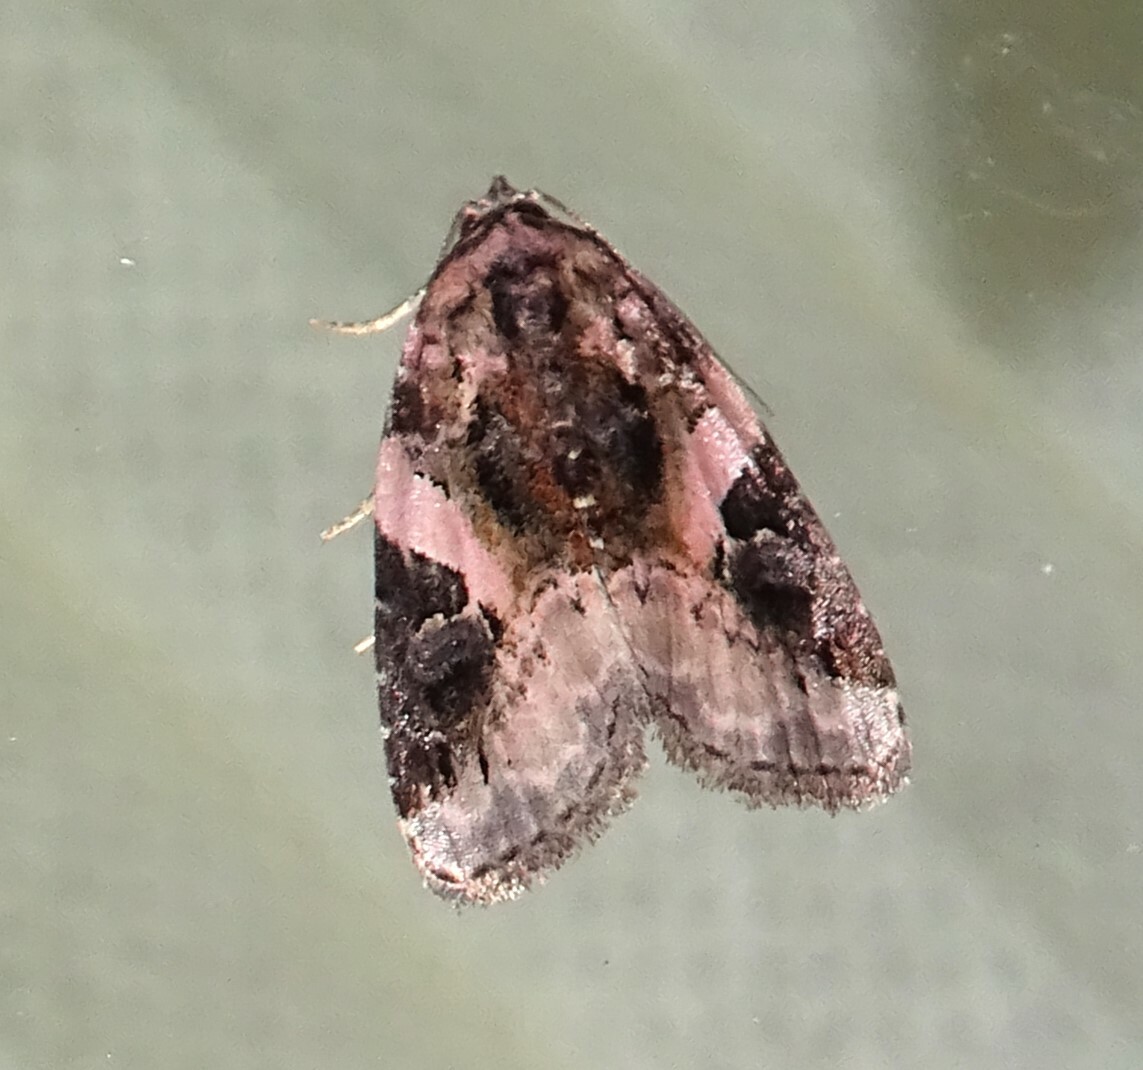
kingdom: Animalia
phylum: Arthropoda
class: Insecta
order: Lepidoptera
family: Noctuidae
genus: Pseudeustrotia
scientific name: Pseudeustrotia carneola
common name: Pink-barred lithacodia moth
